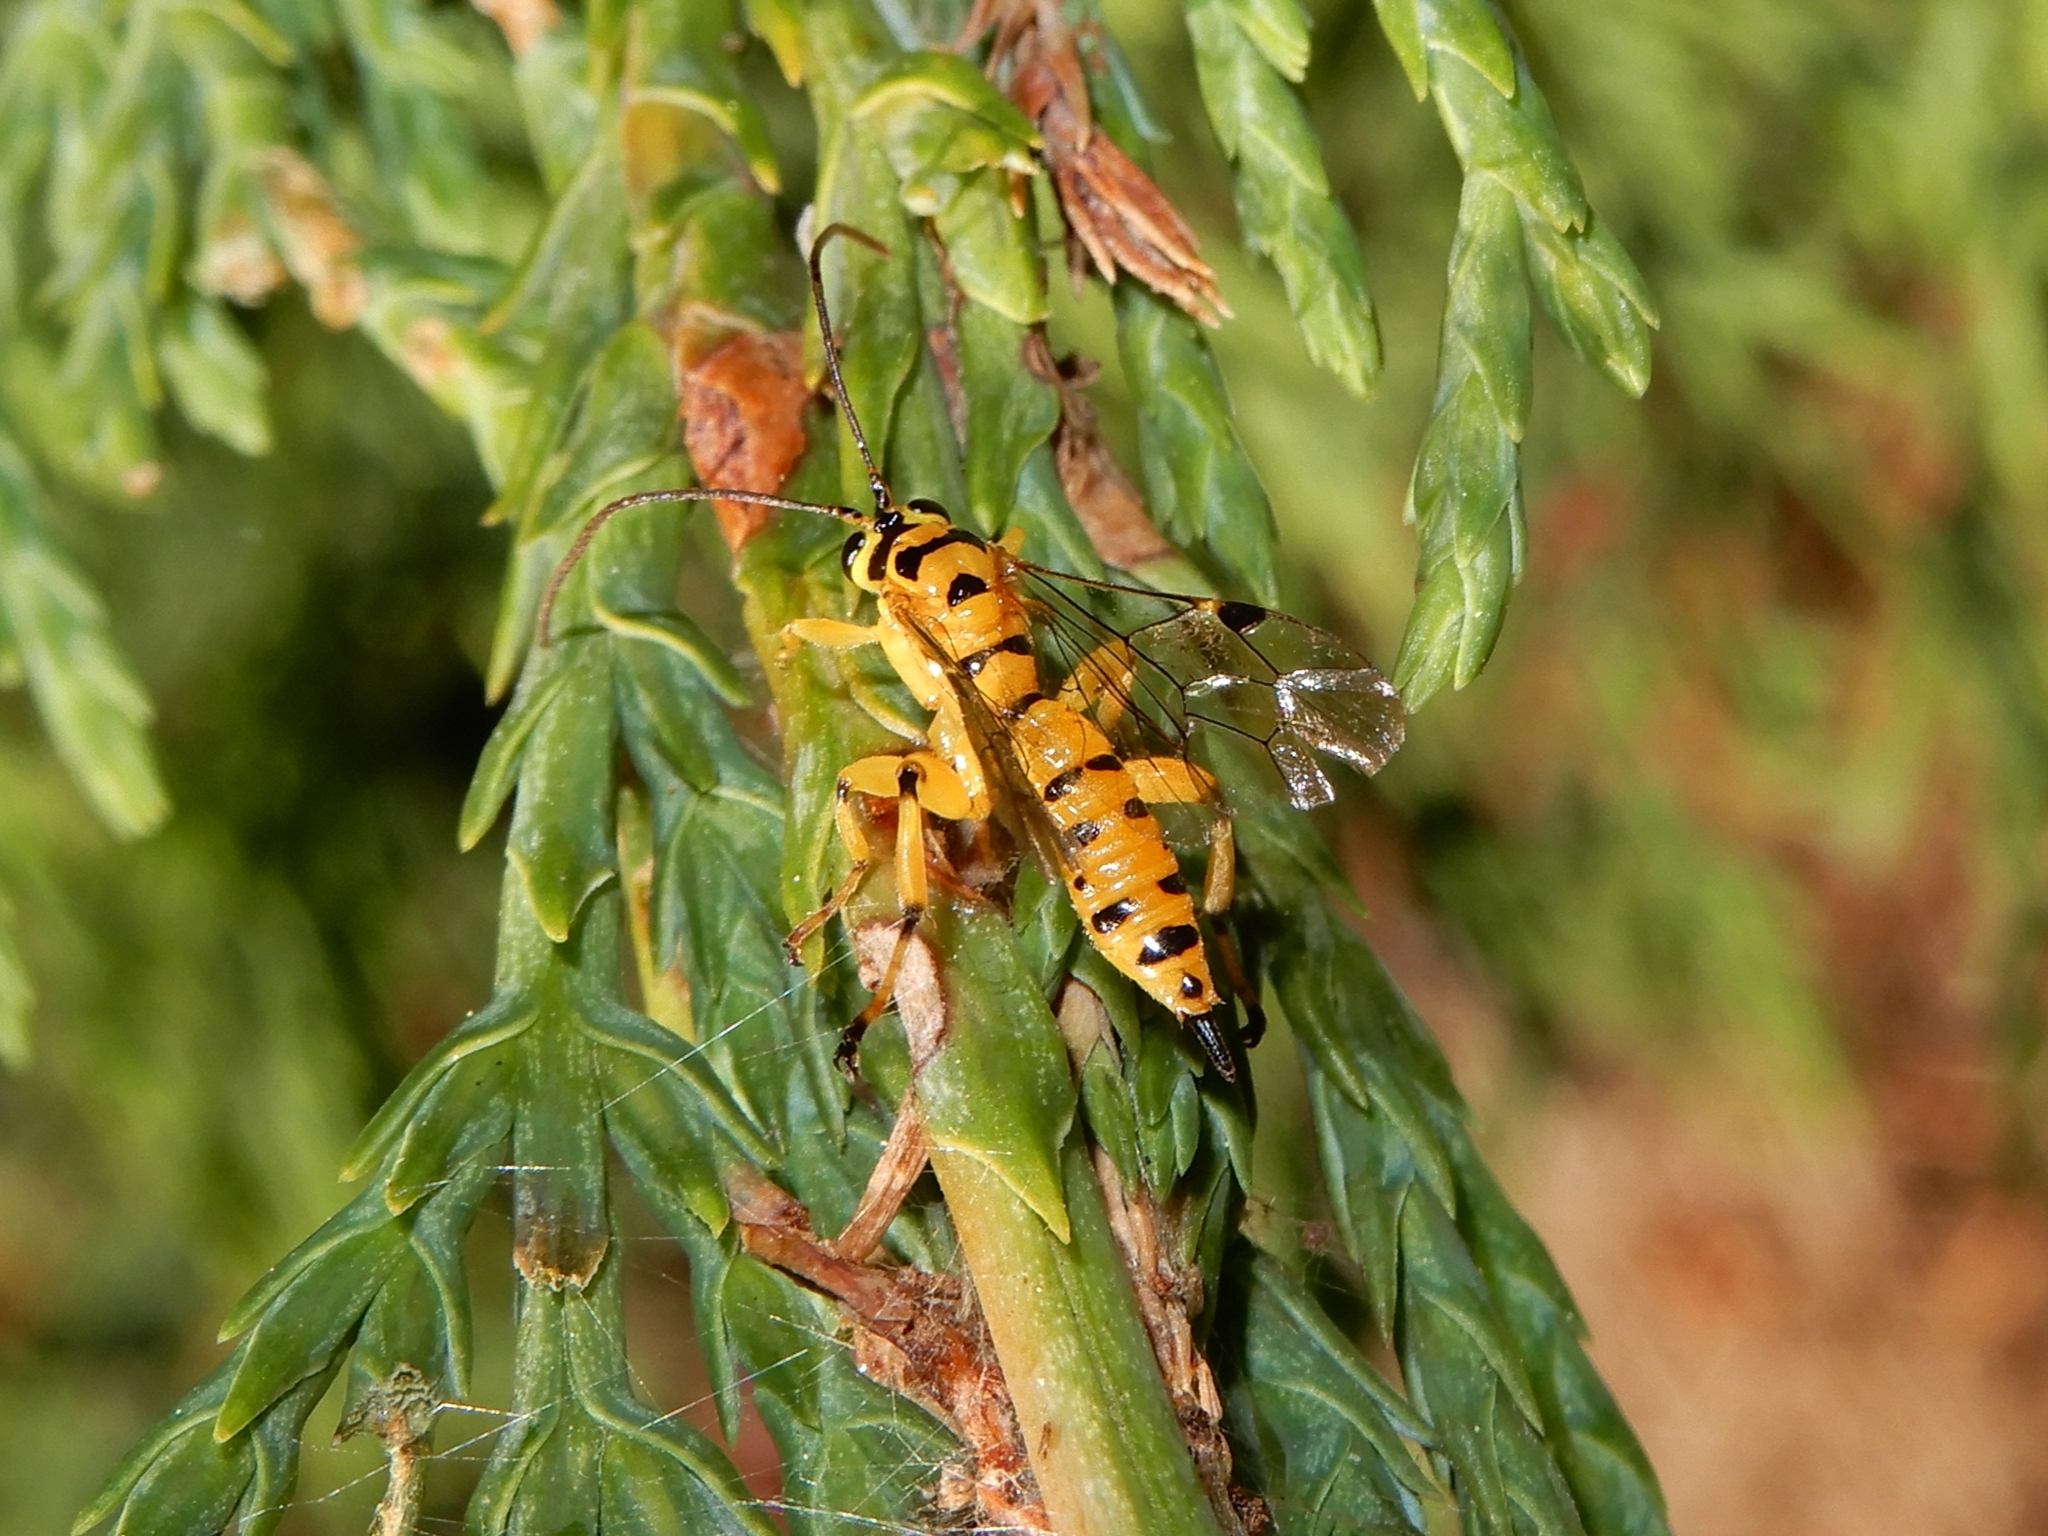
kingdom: Animalia
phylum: Arthropoda
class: Insecta
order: Hymenoptera
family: Ichneumonidae
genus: Xanthopimpla
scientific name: Xanthopimpla rhopaloceros
